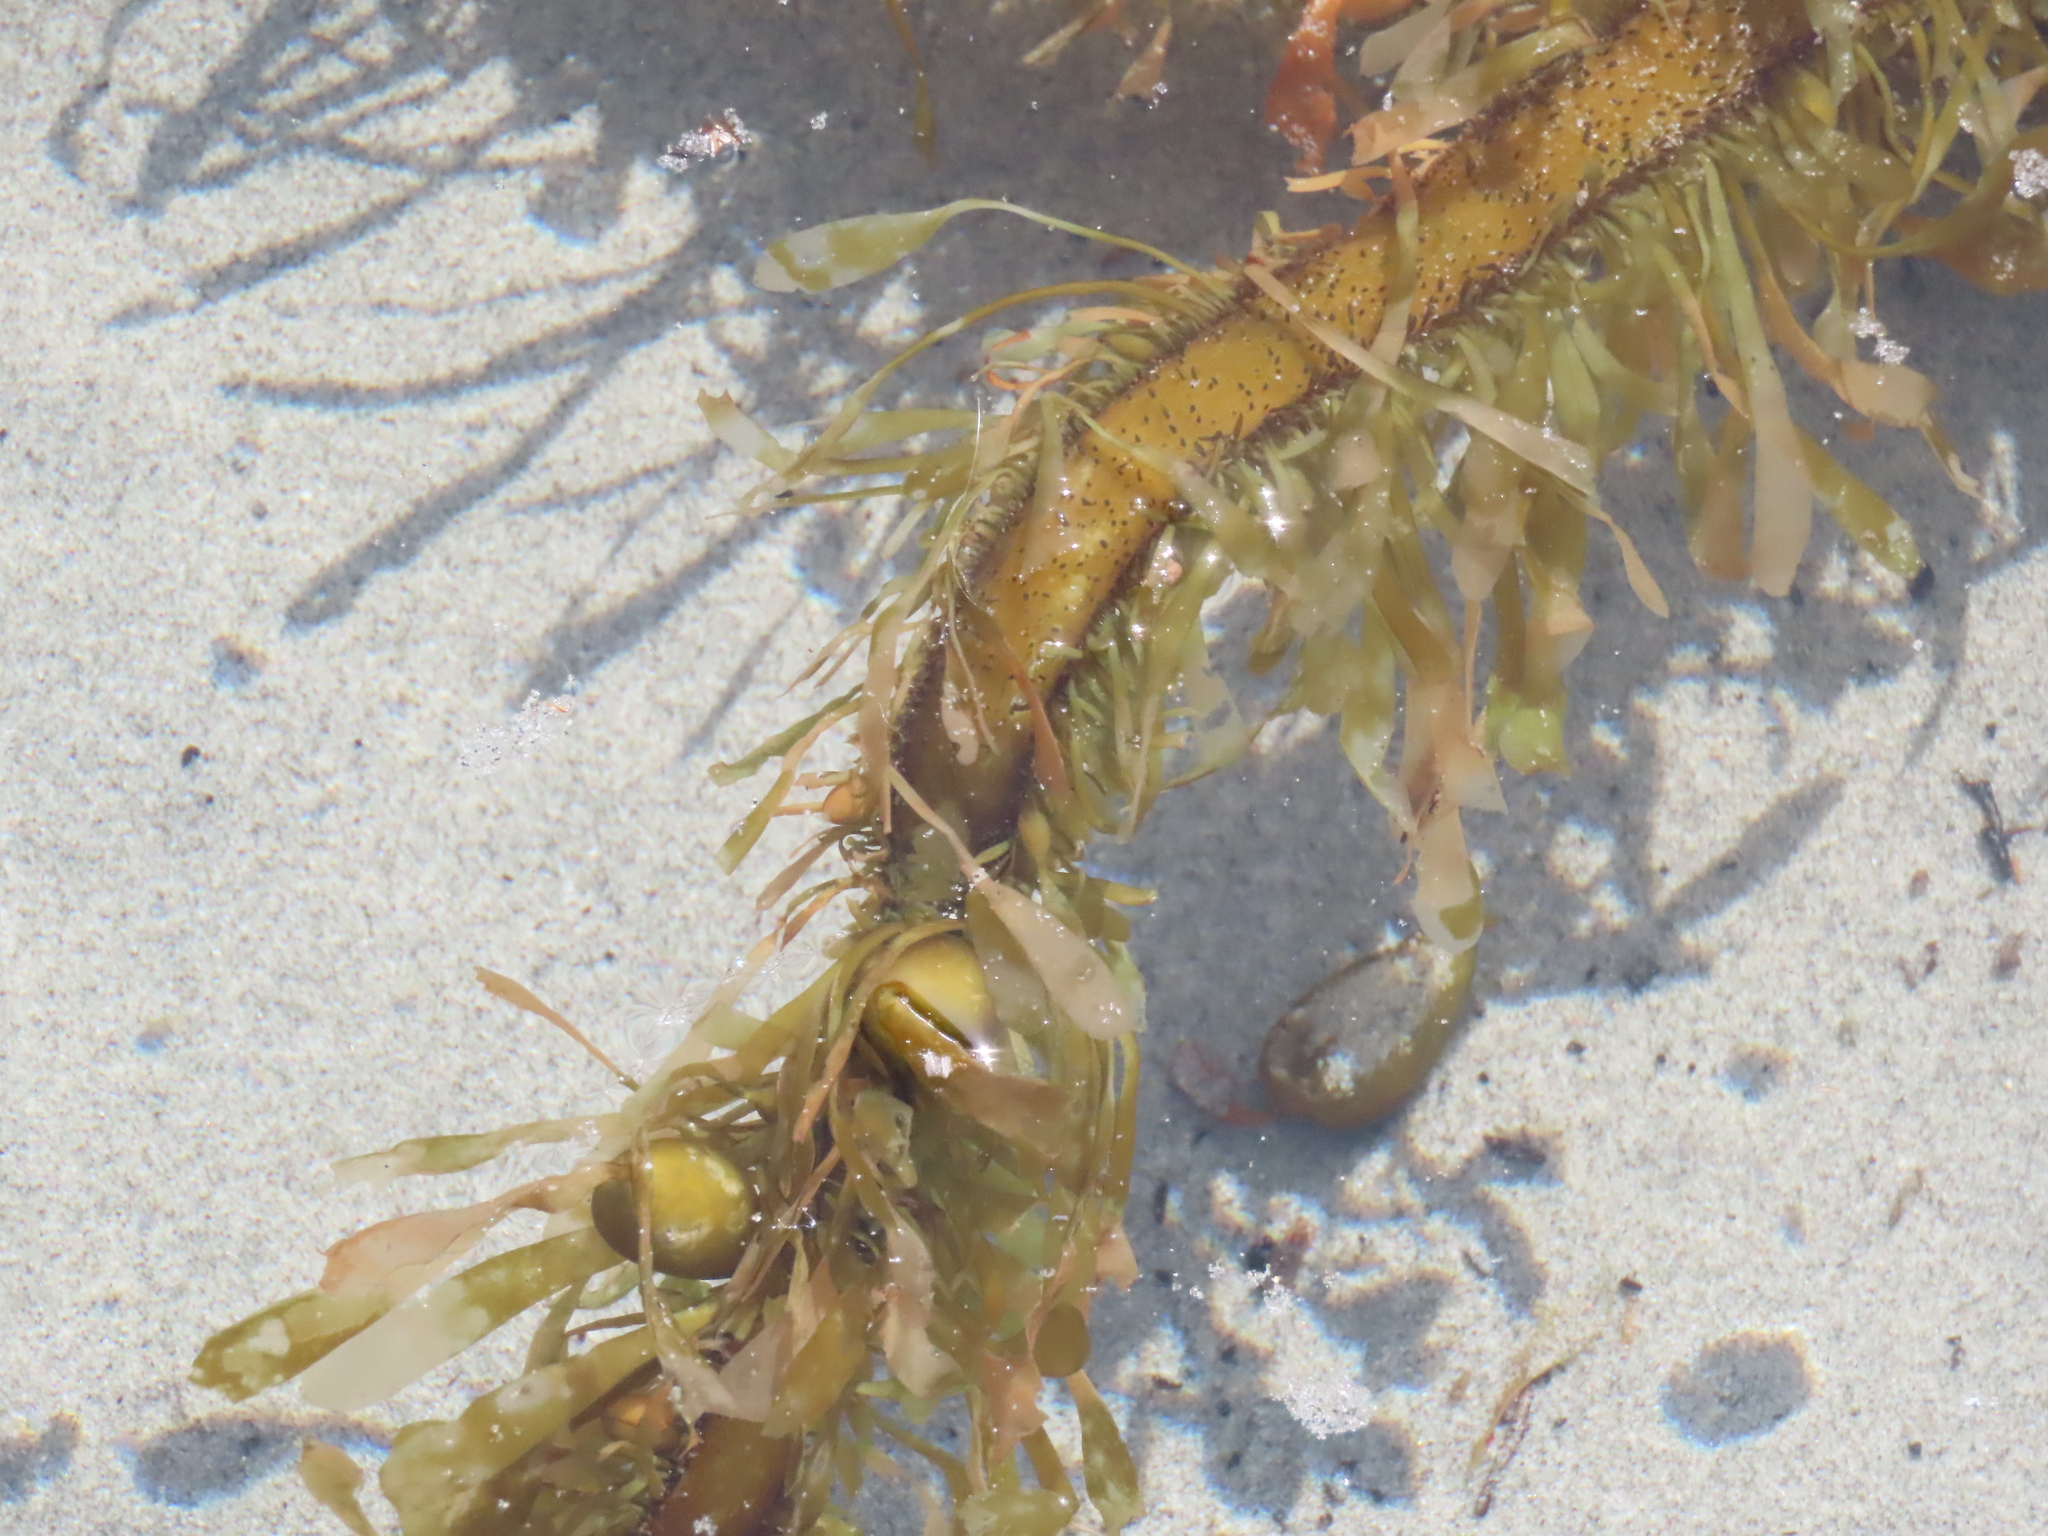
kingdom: Chromista
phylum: Ochrophyta
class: Phaeophyceae
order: Laminariales
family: Lessoniaceae
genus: Egregia
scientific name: Egregia menziesii
